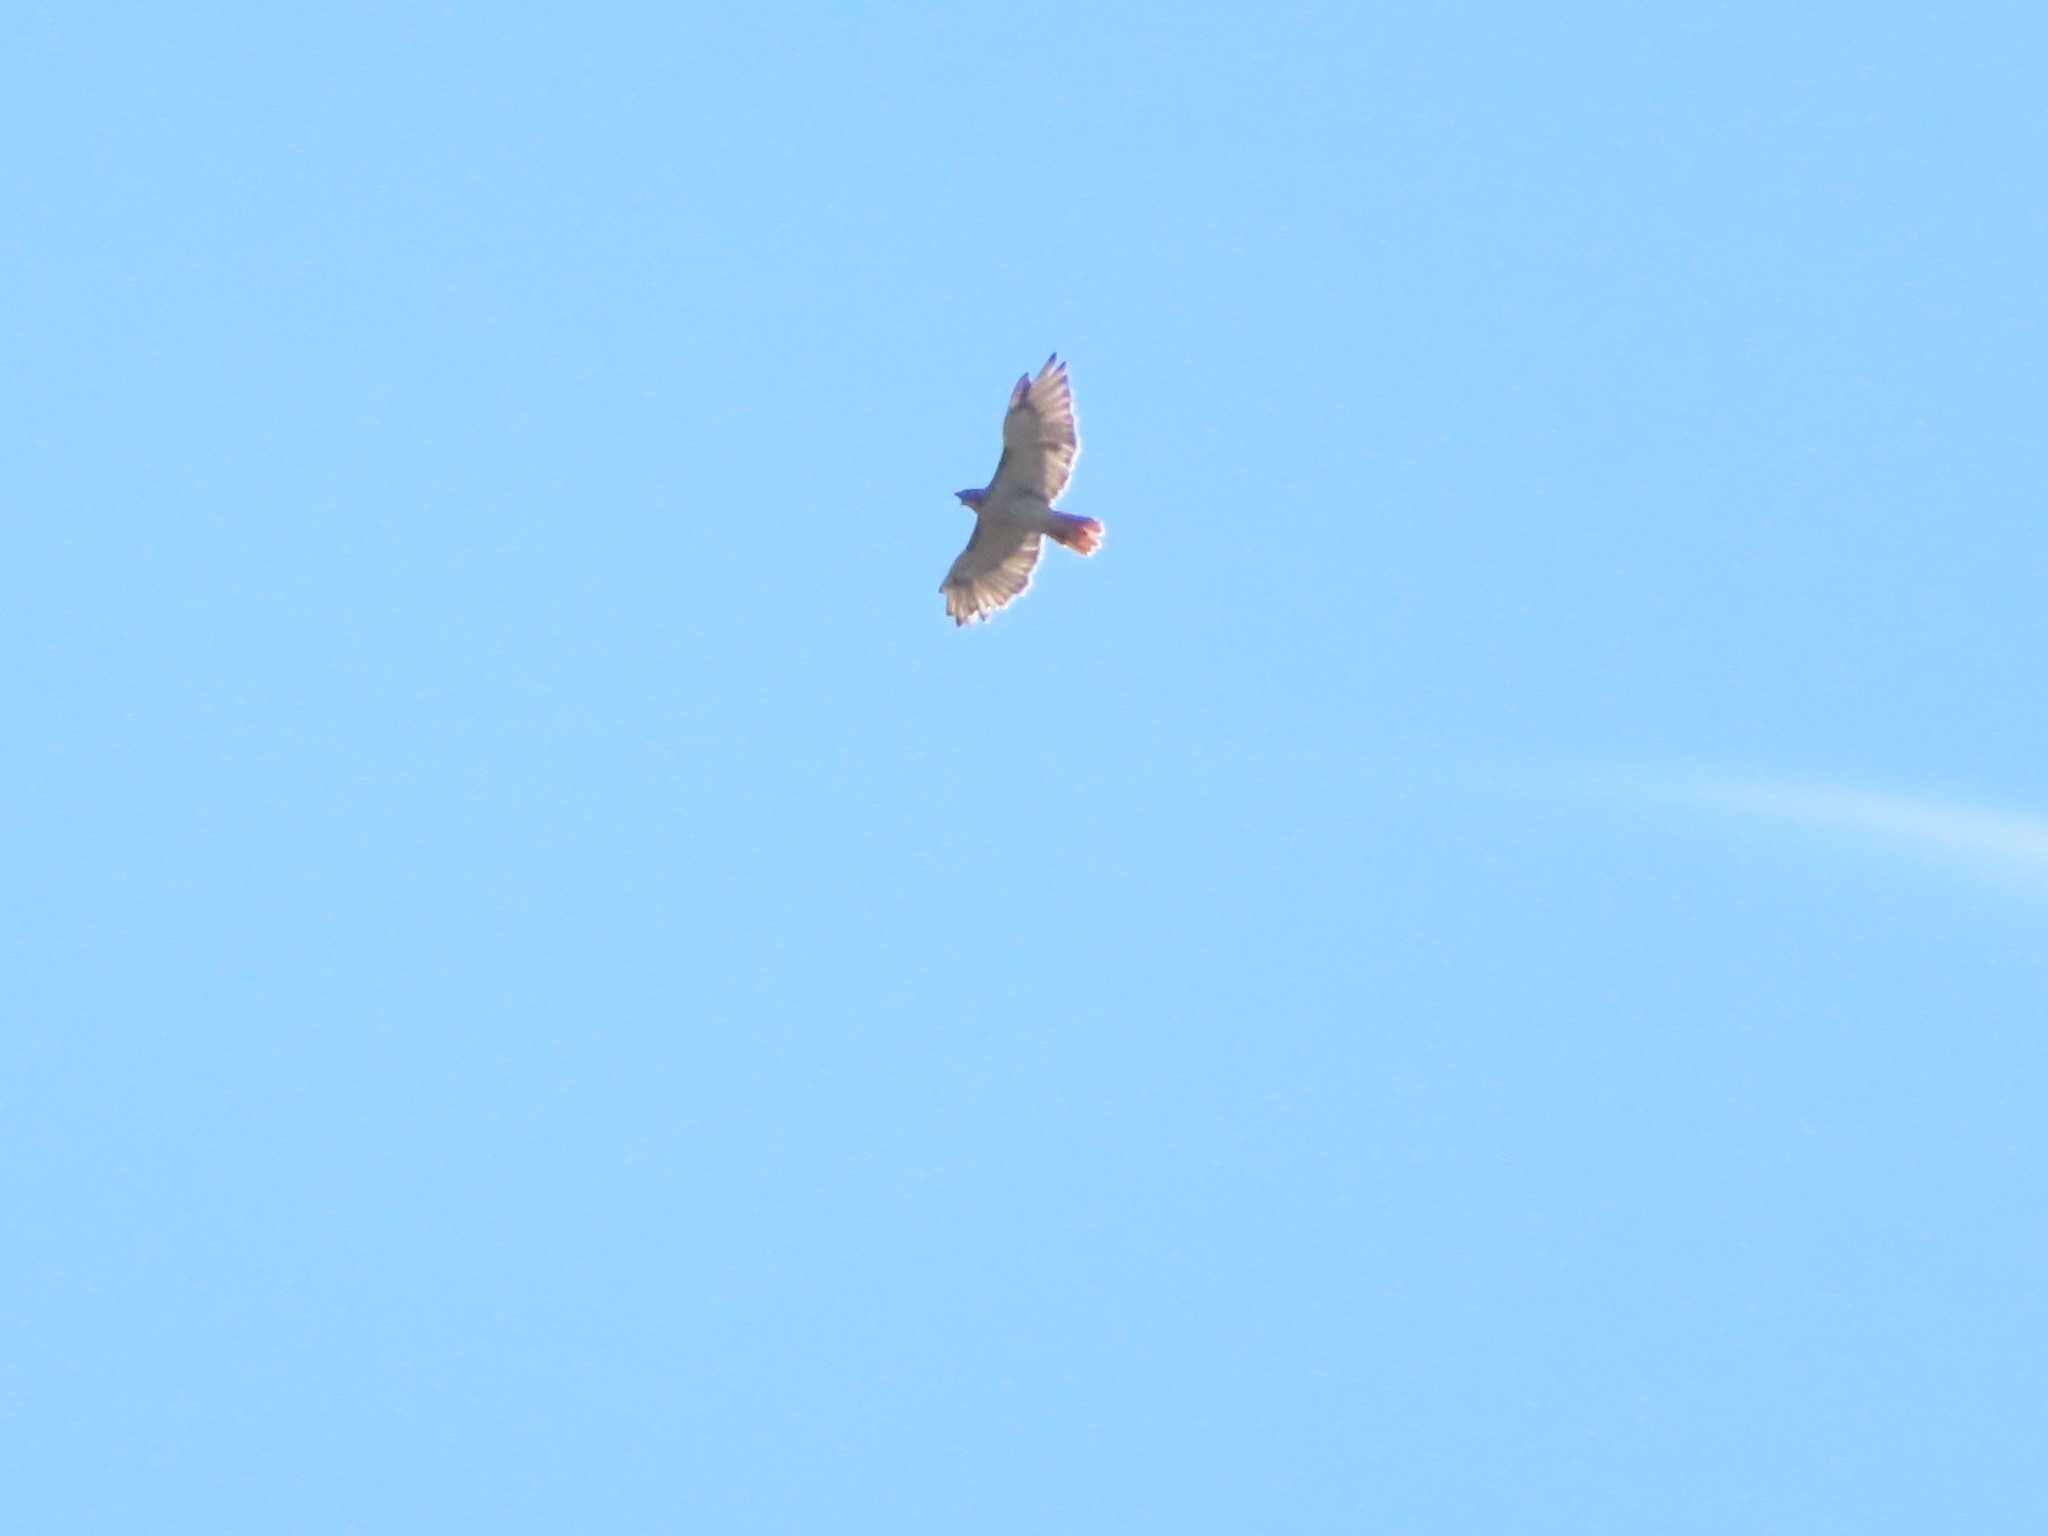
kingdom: Animalia
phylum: Chordata
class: Aves
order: Accipitriformes
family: Accipitridae
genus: Buteo
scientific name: Buteo jamaicensis
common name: Red-tailed hawk
